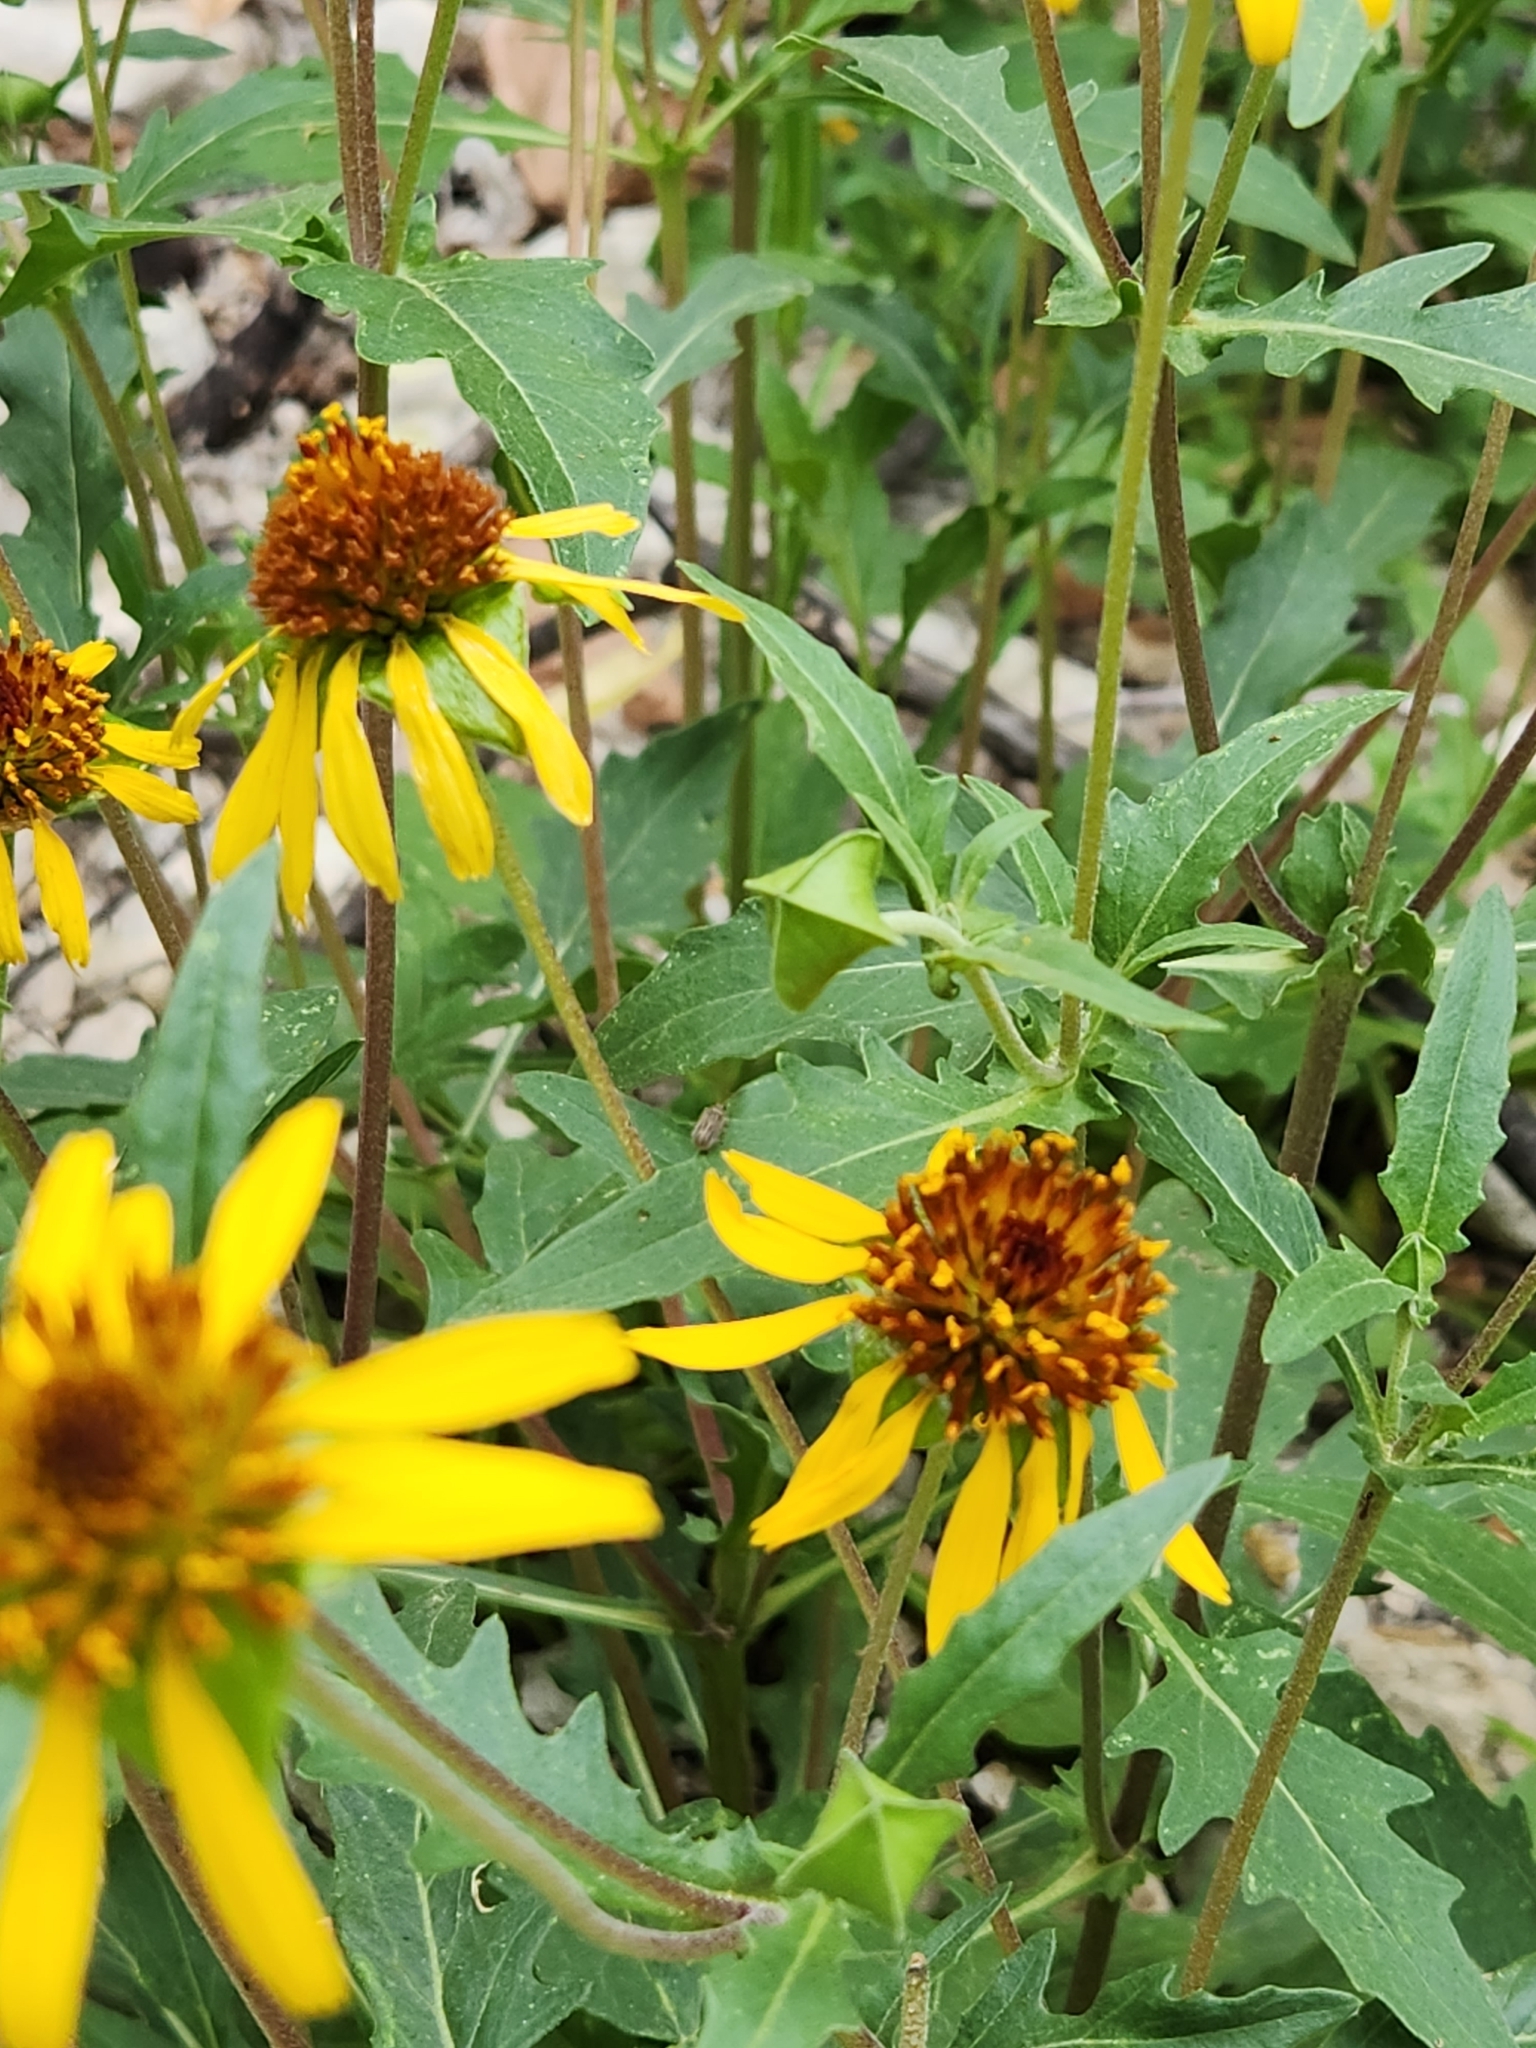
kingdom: Plantae
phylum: Tracheophyta
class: Magnoliopsida
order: Asterales
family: Asteraceae
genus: Tetragonotheca
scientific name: Tetragonotheca texana
